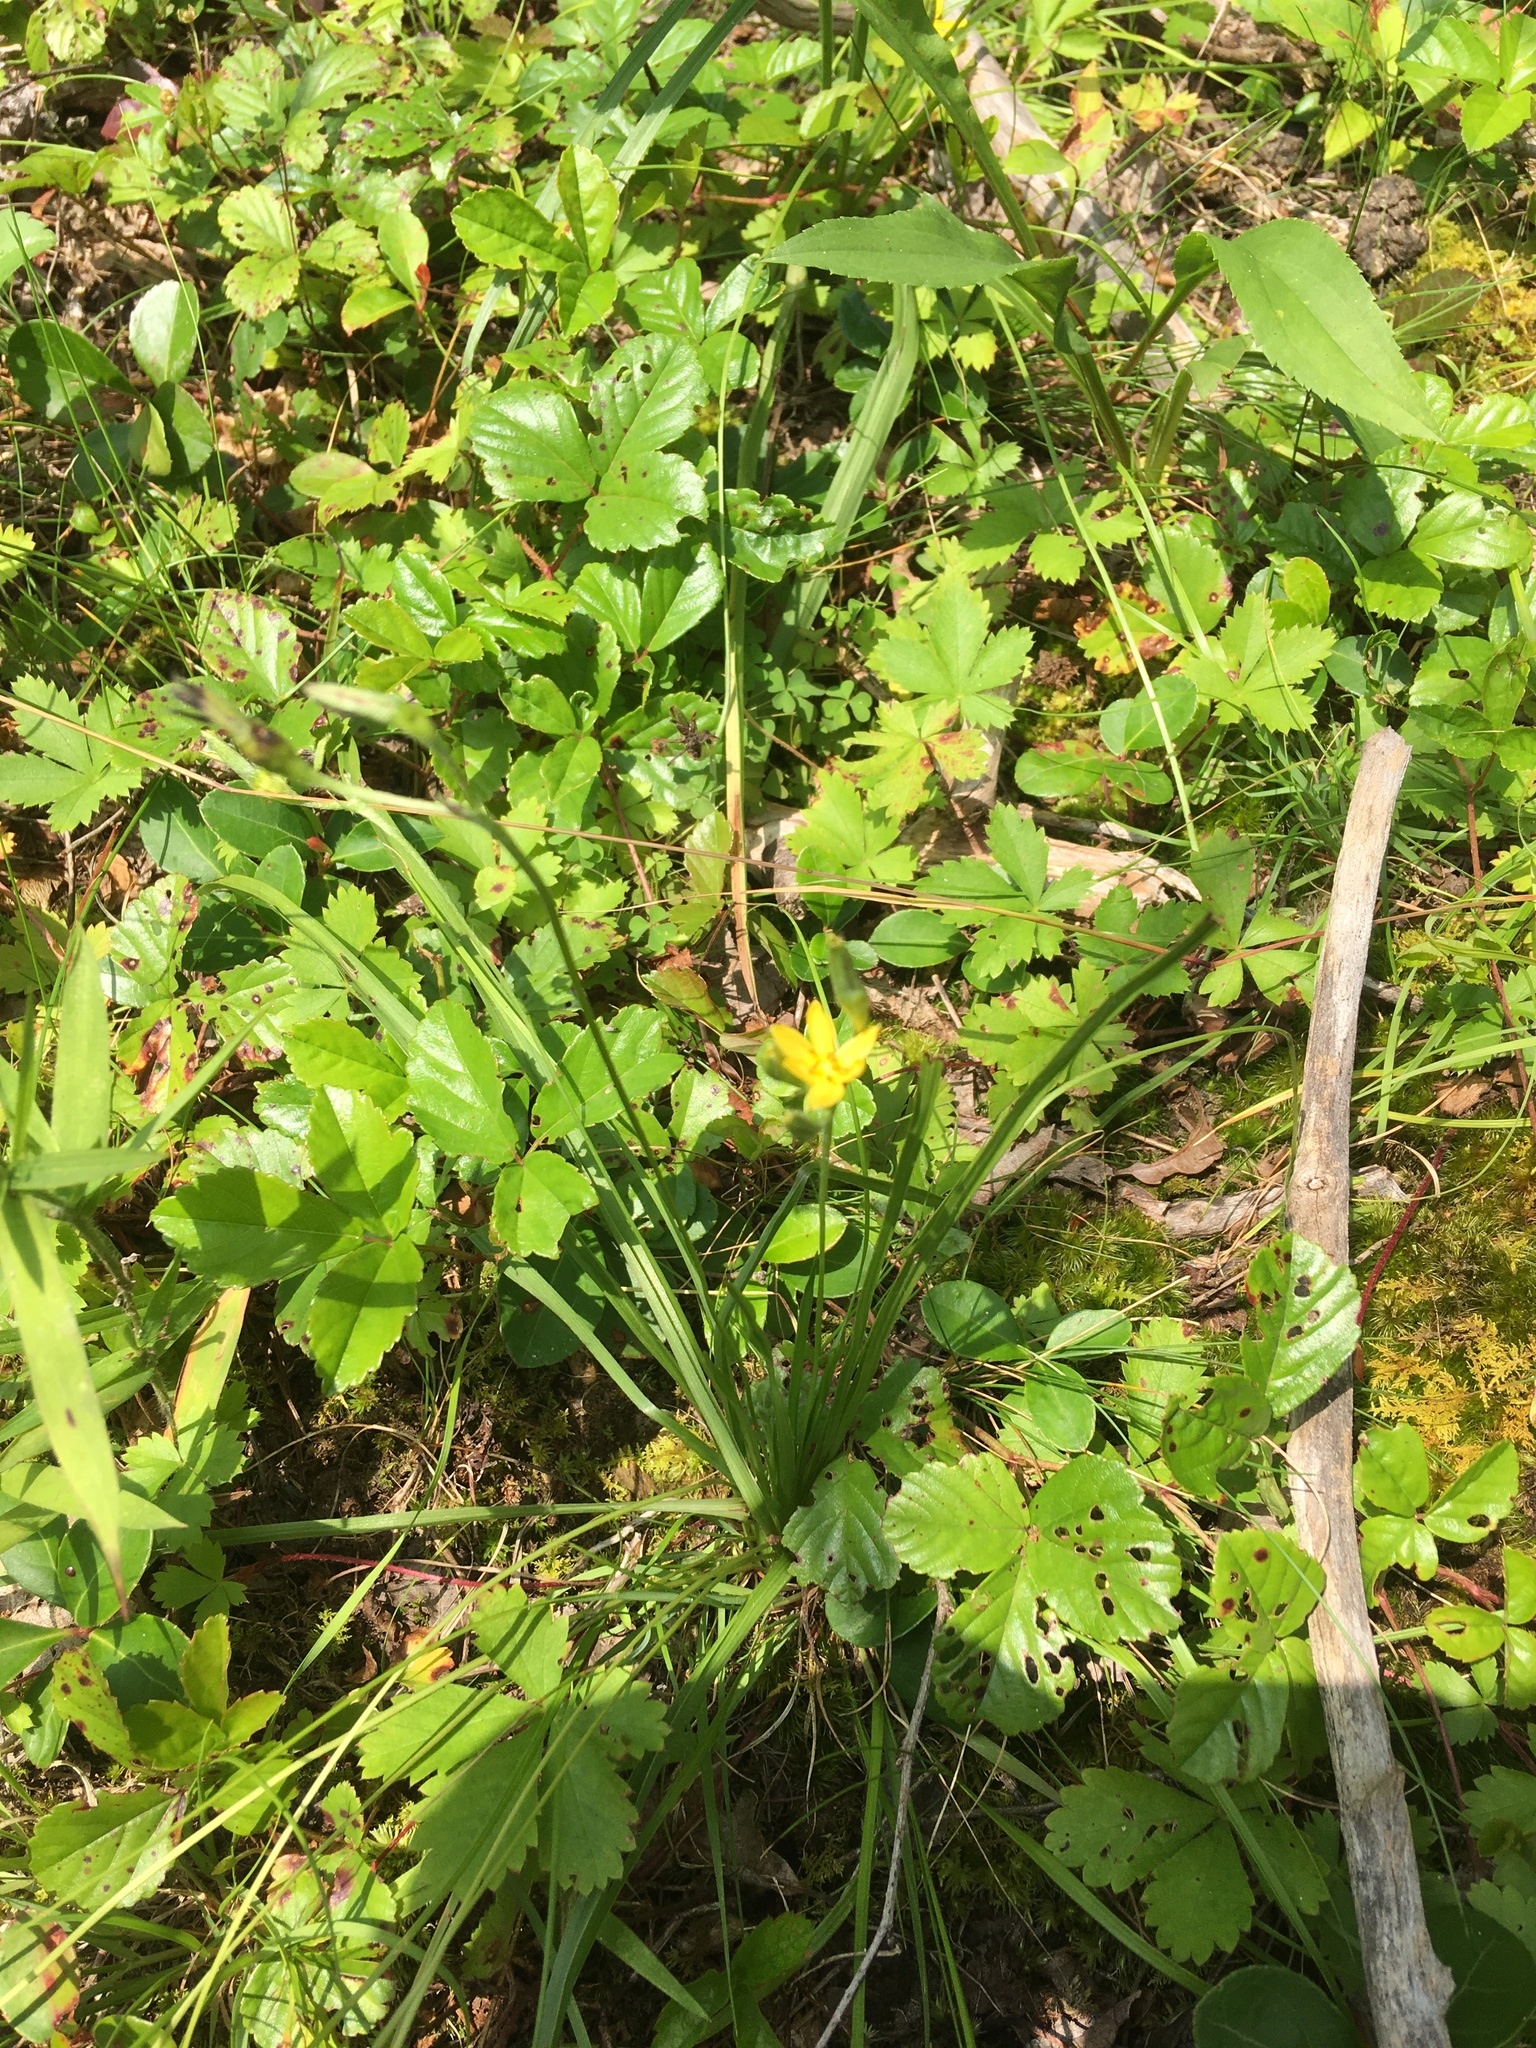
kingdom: Plantae
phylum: Tracheophyta
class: Liliopsida
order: Asparagales
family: Hypoxidaceae
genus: Hypoxis
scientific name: Hypoxis hirsuta
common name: Common goldstar
